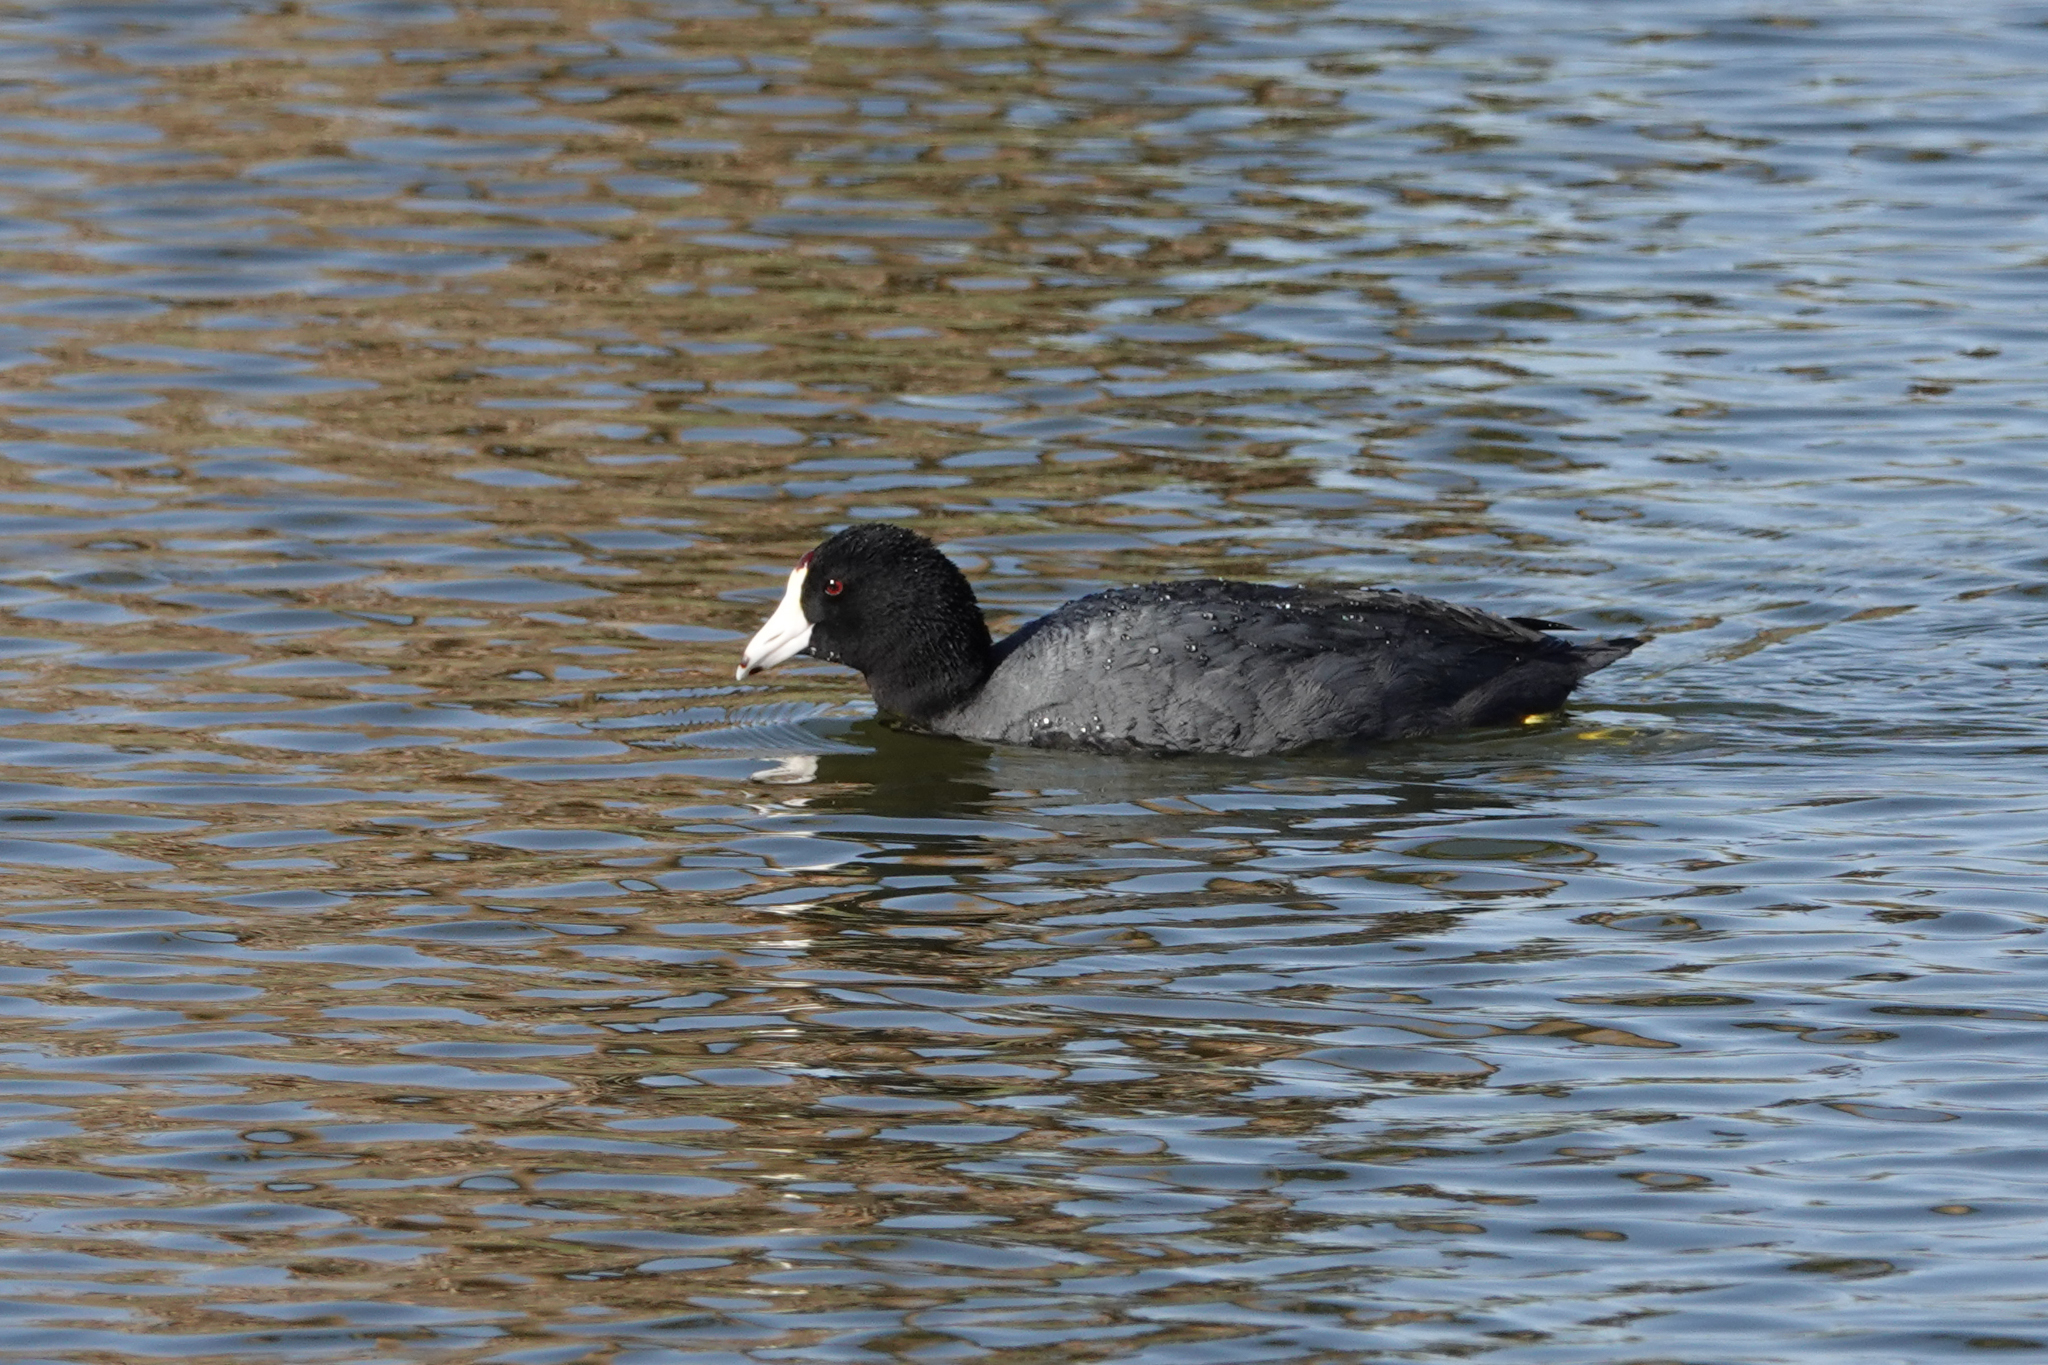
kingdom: Animalia
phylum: Chordata
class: Aves
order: Gruiformes
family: Rallidae
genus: Fulica
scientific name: Fulica americana
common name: American coot
